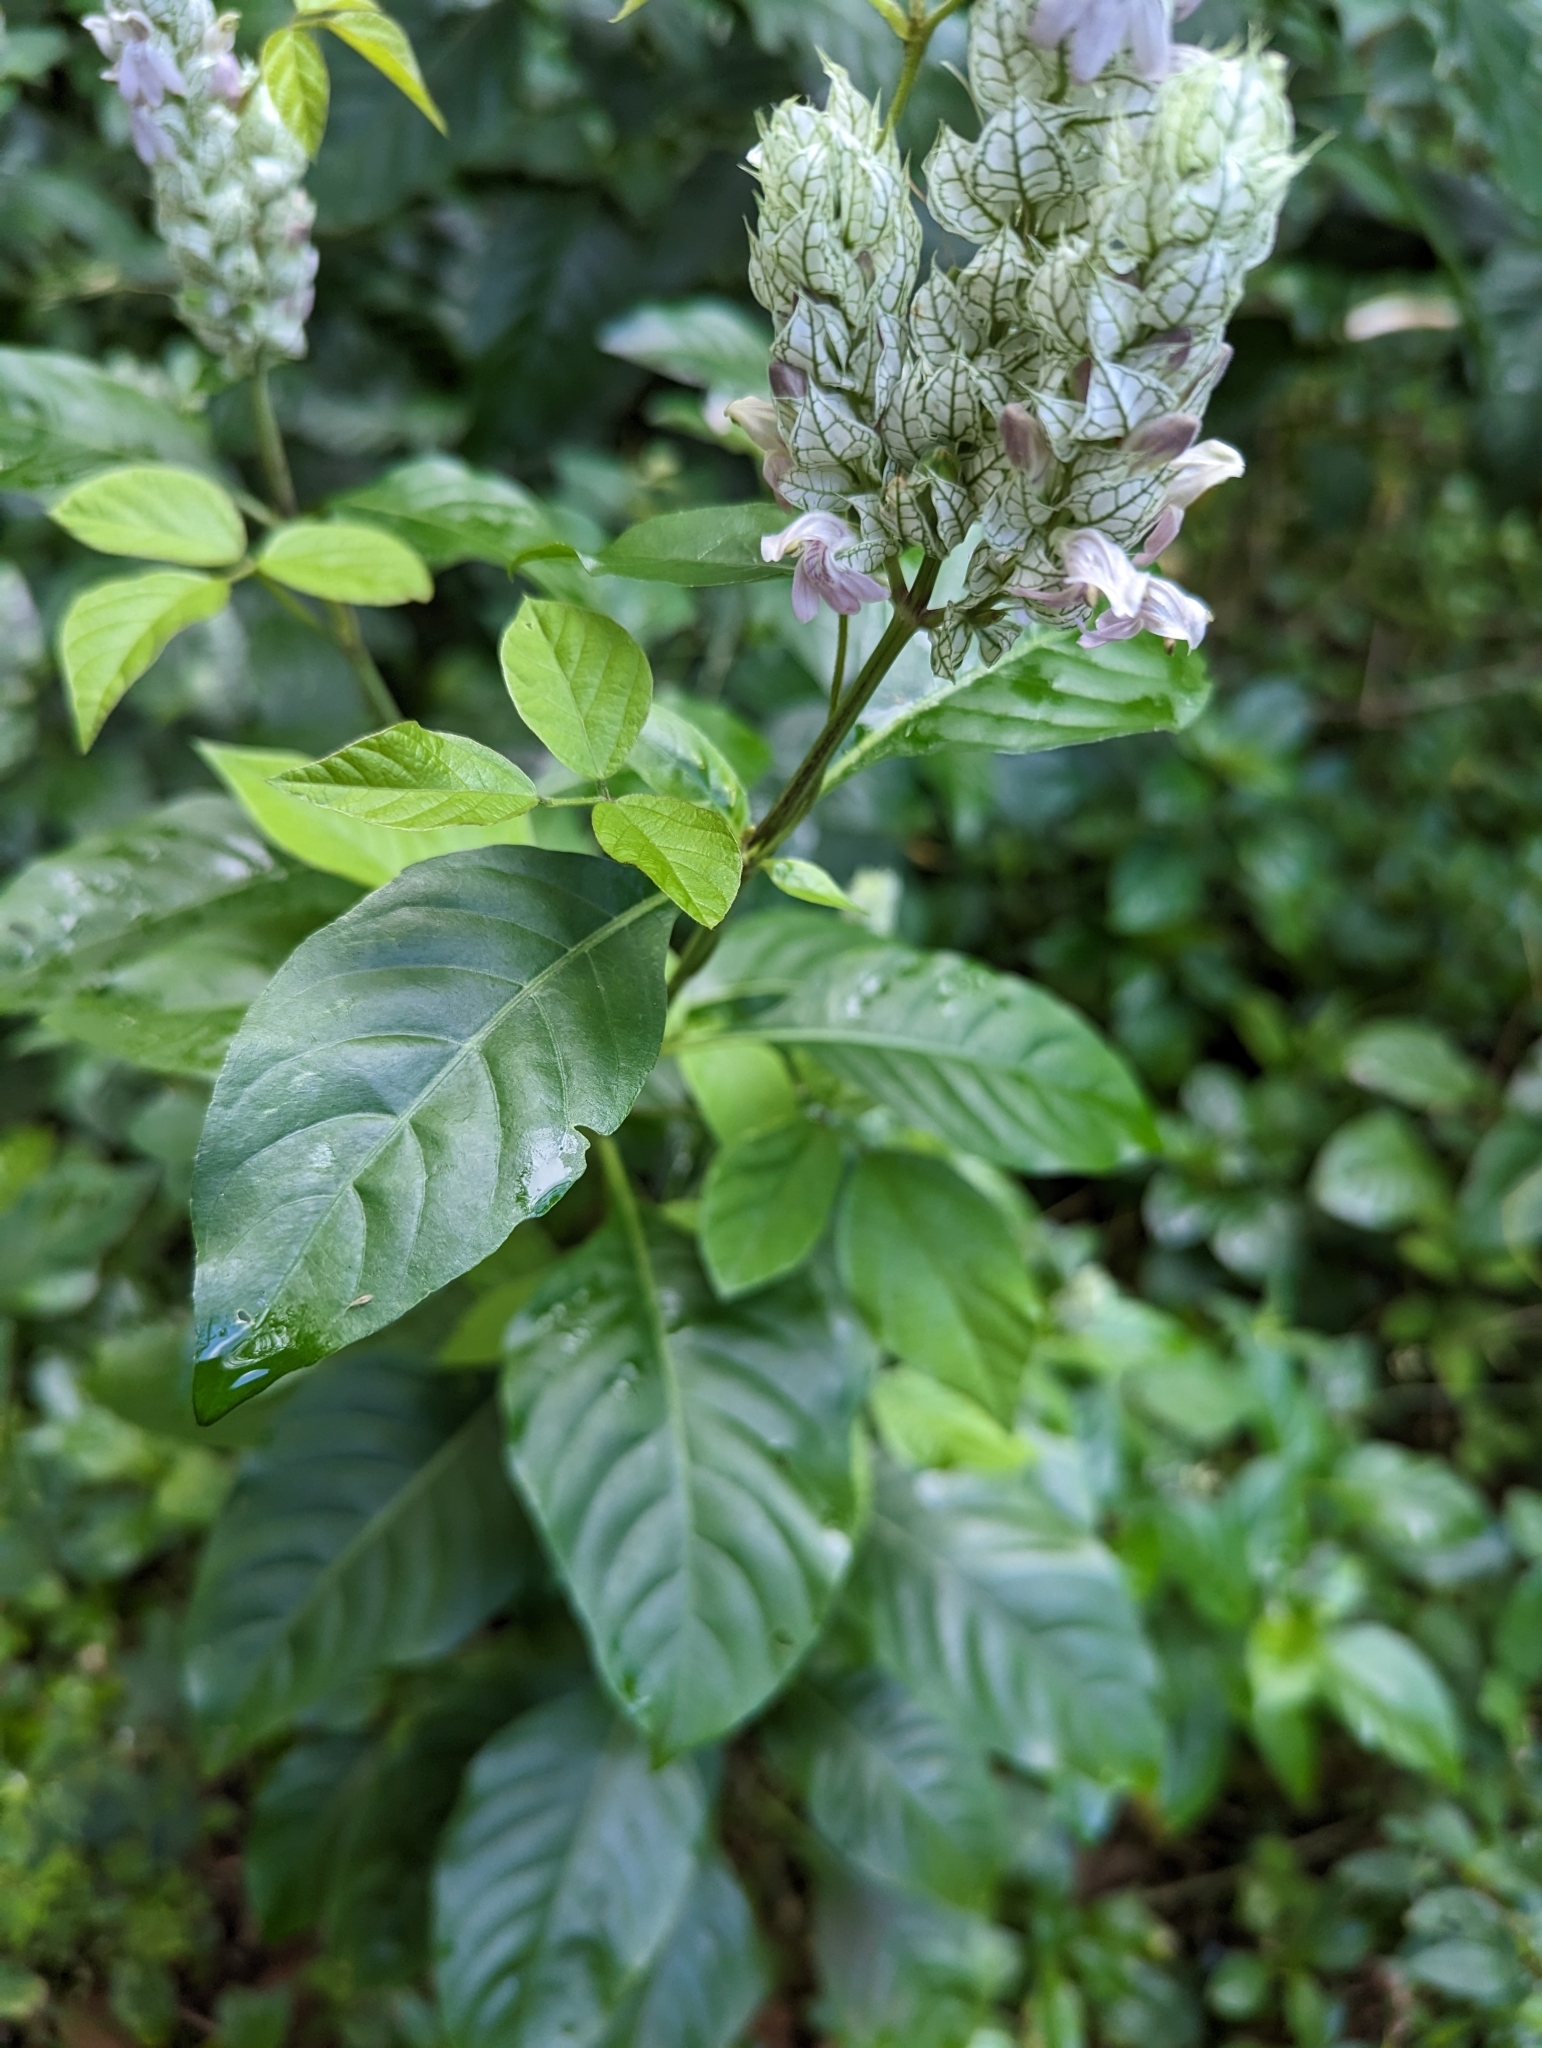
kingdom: Plantae
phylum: Tracheophyta
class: Magnoliopsida
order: Lamiales
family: Acanthaceae
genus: Justicia
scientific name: Justicia betonica
